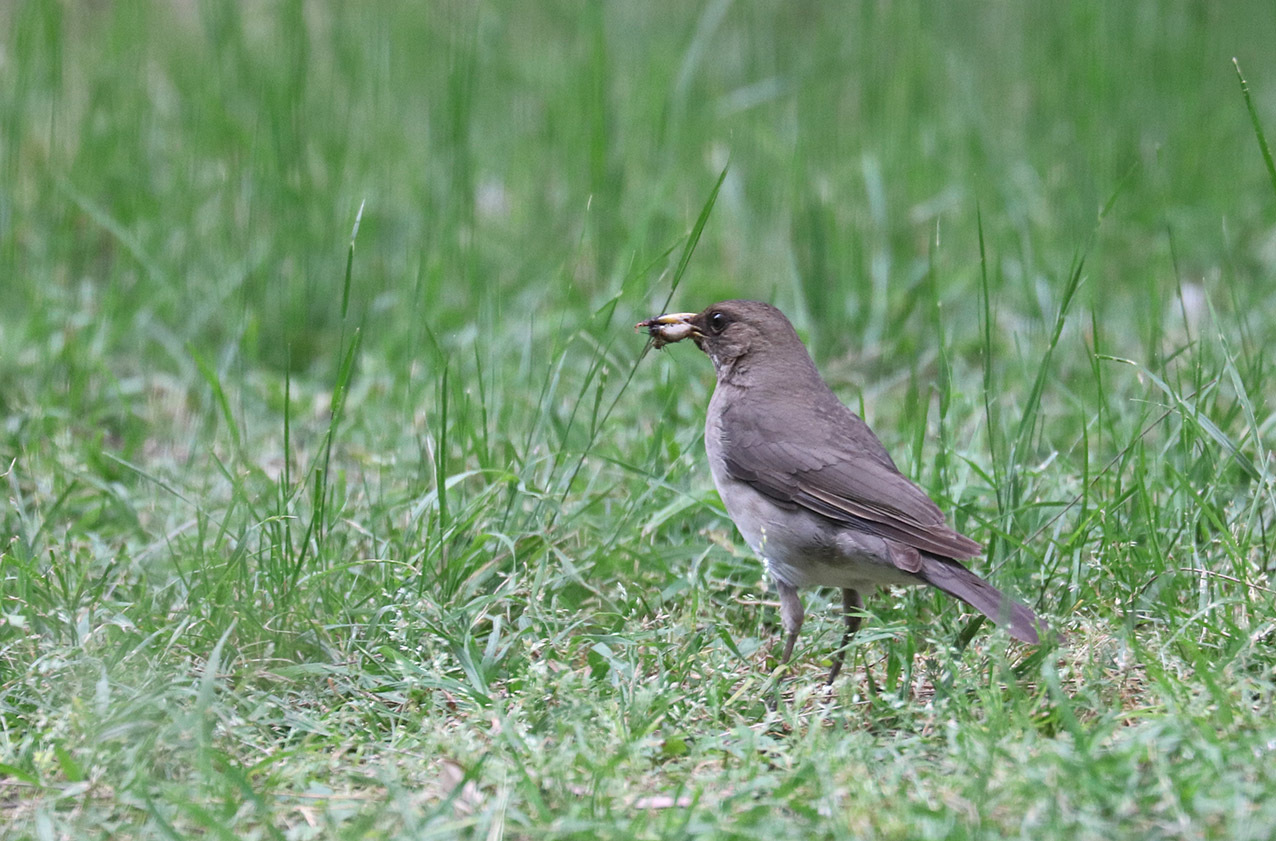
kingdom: Animalia
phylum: Chordata
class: Aves
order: Passeriformes
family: Turdidae
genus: Turdus
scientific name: Turdus amaurochalinus
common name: Creamy-bellied thrush
